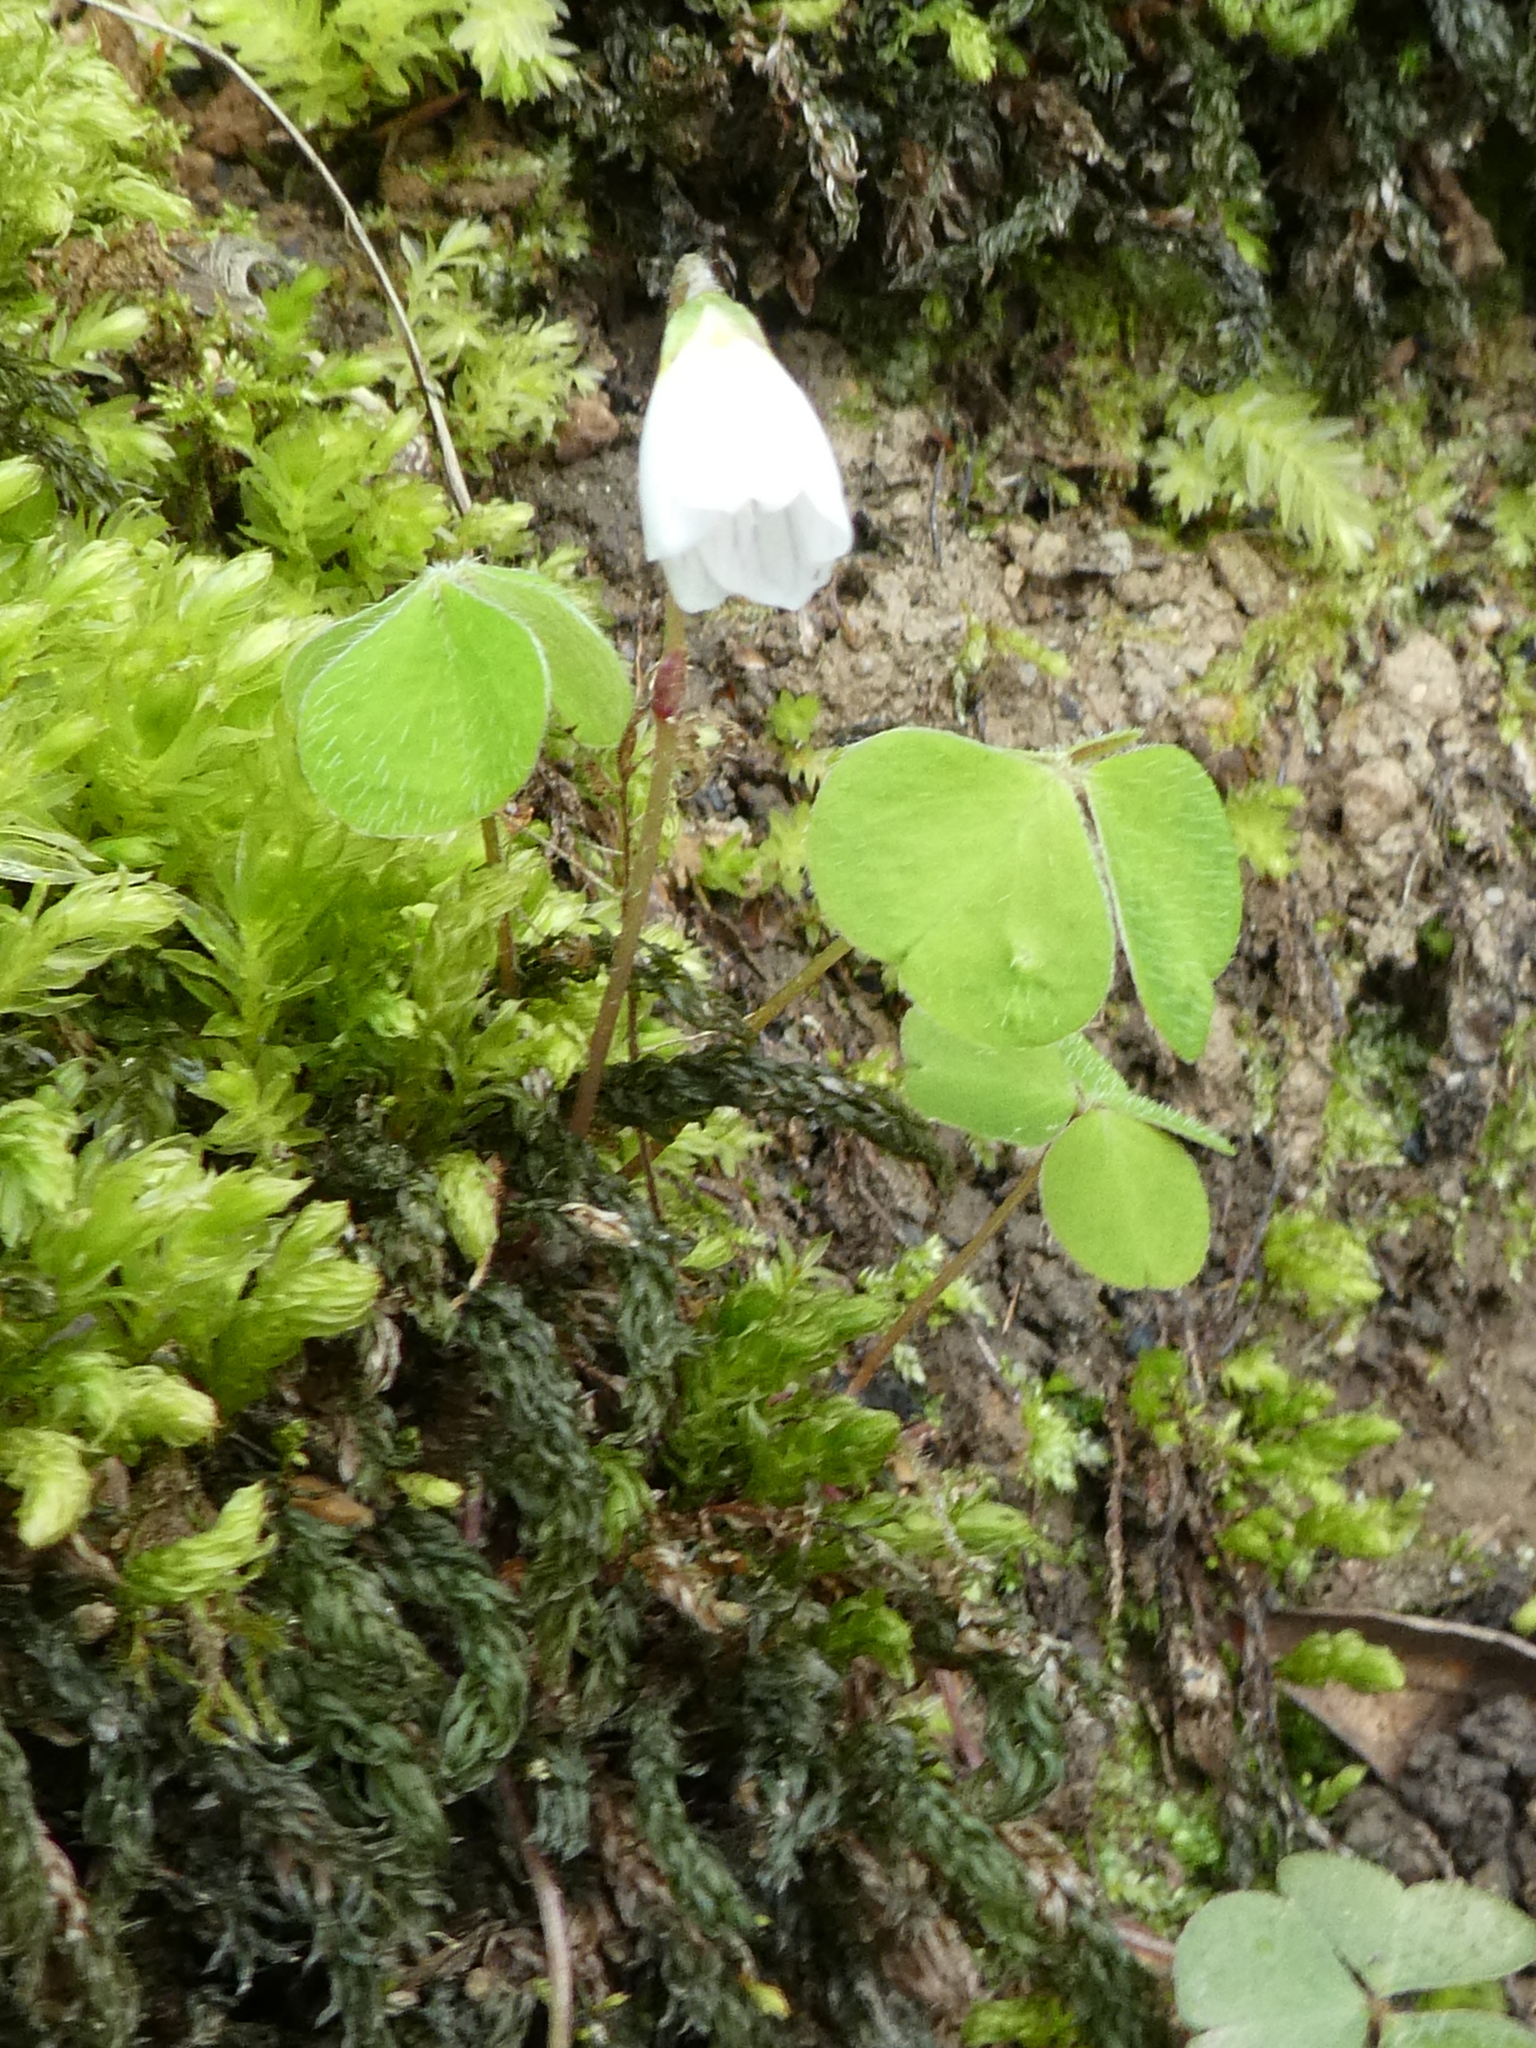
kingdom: Plantae
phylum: Tracheophyta
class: Magnoliopsida
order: Oxalidales
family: Oxalidaceae
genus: Oxalis
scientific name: Oxalis acetosella
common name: Wood-sorrel
